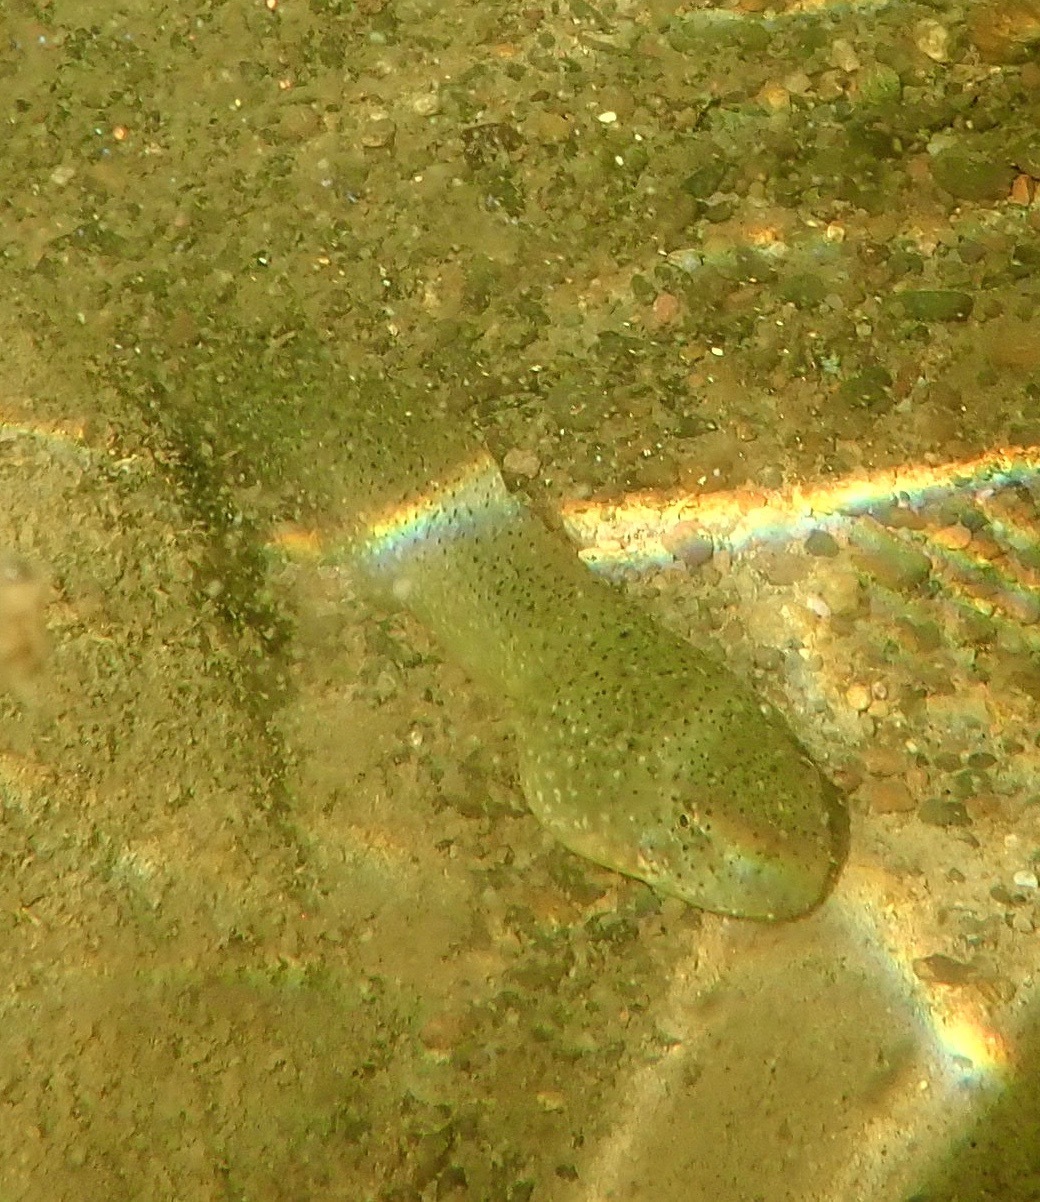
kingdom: Animalia
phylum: Chordata
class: Amphibia
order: Anura
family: Ranidae
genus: Lithobates
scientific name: Lithobates catesbeianus
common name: American bullfrog
